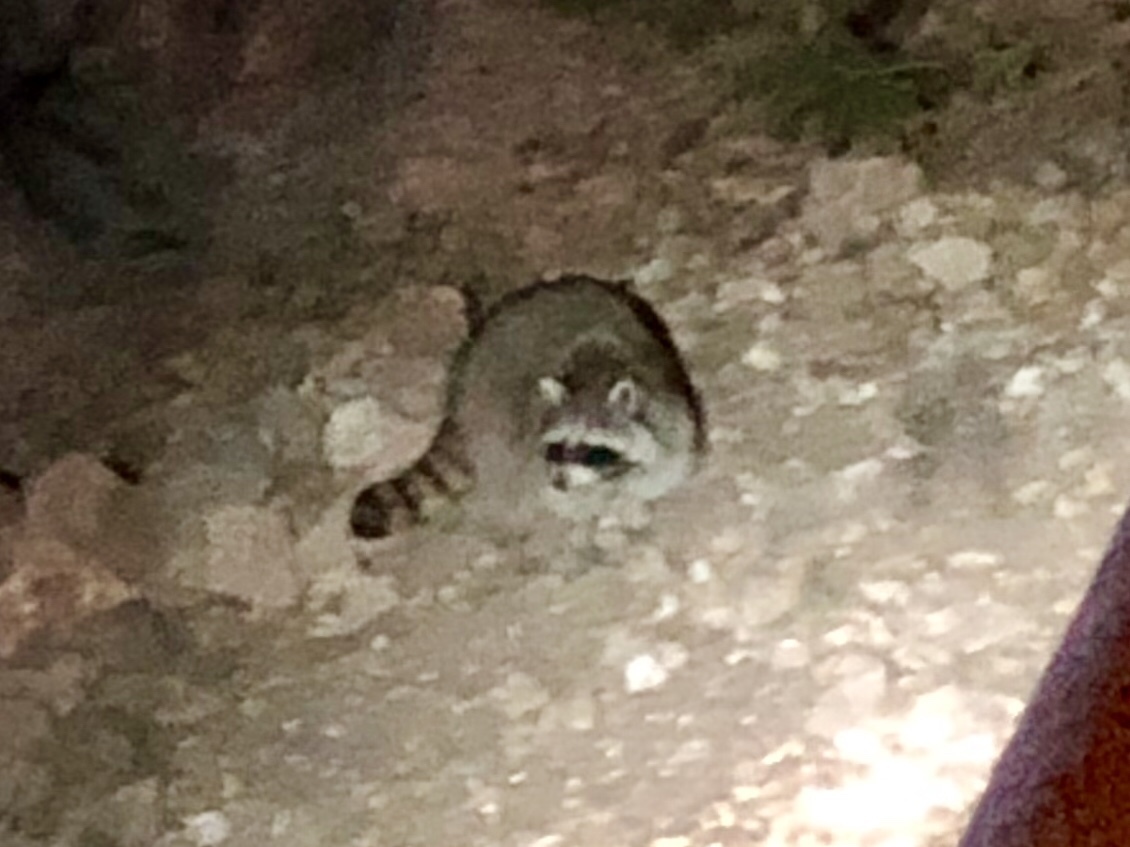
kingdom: Animalia
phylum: Chordata
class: Mammalia
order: Carnivora
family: Procyonidae
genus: Procyon
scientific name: Procyon lotor
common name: Raccoon
